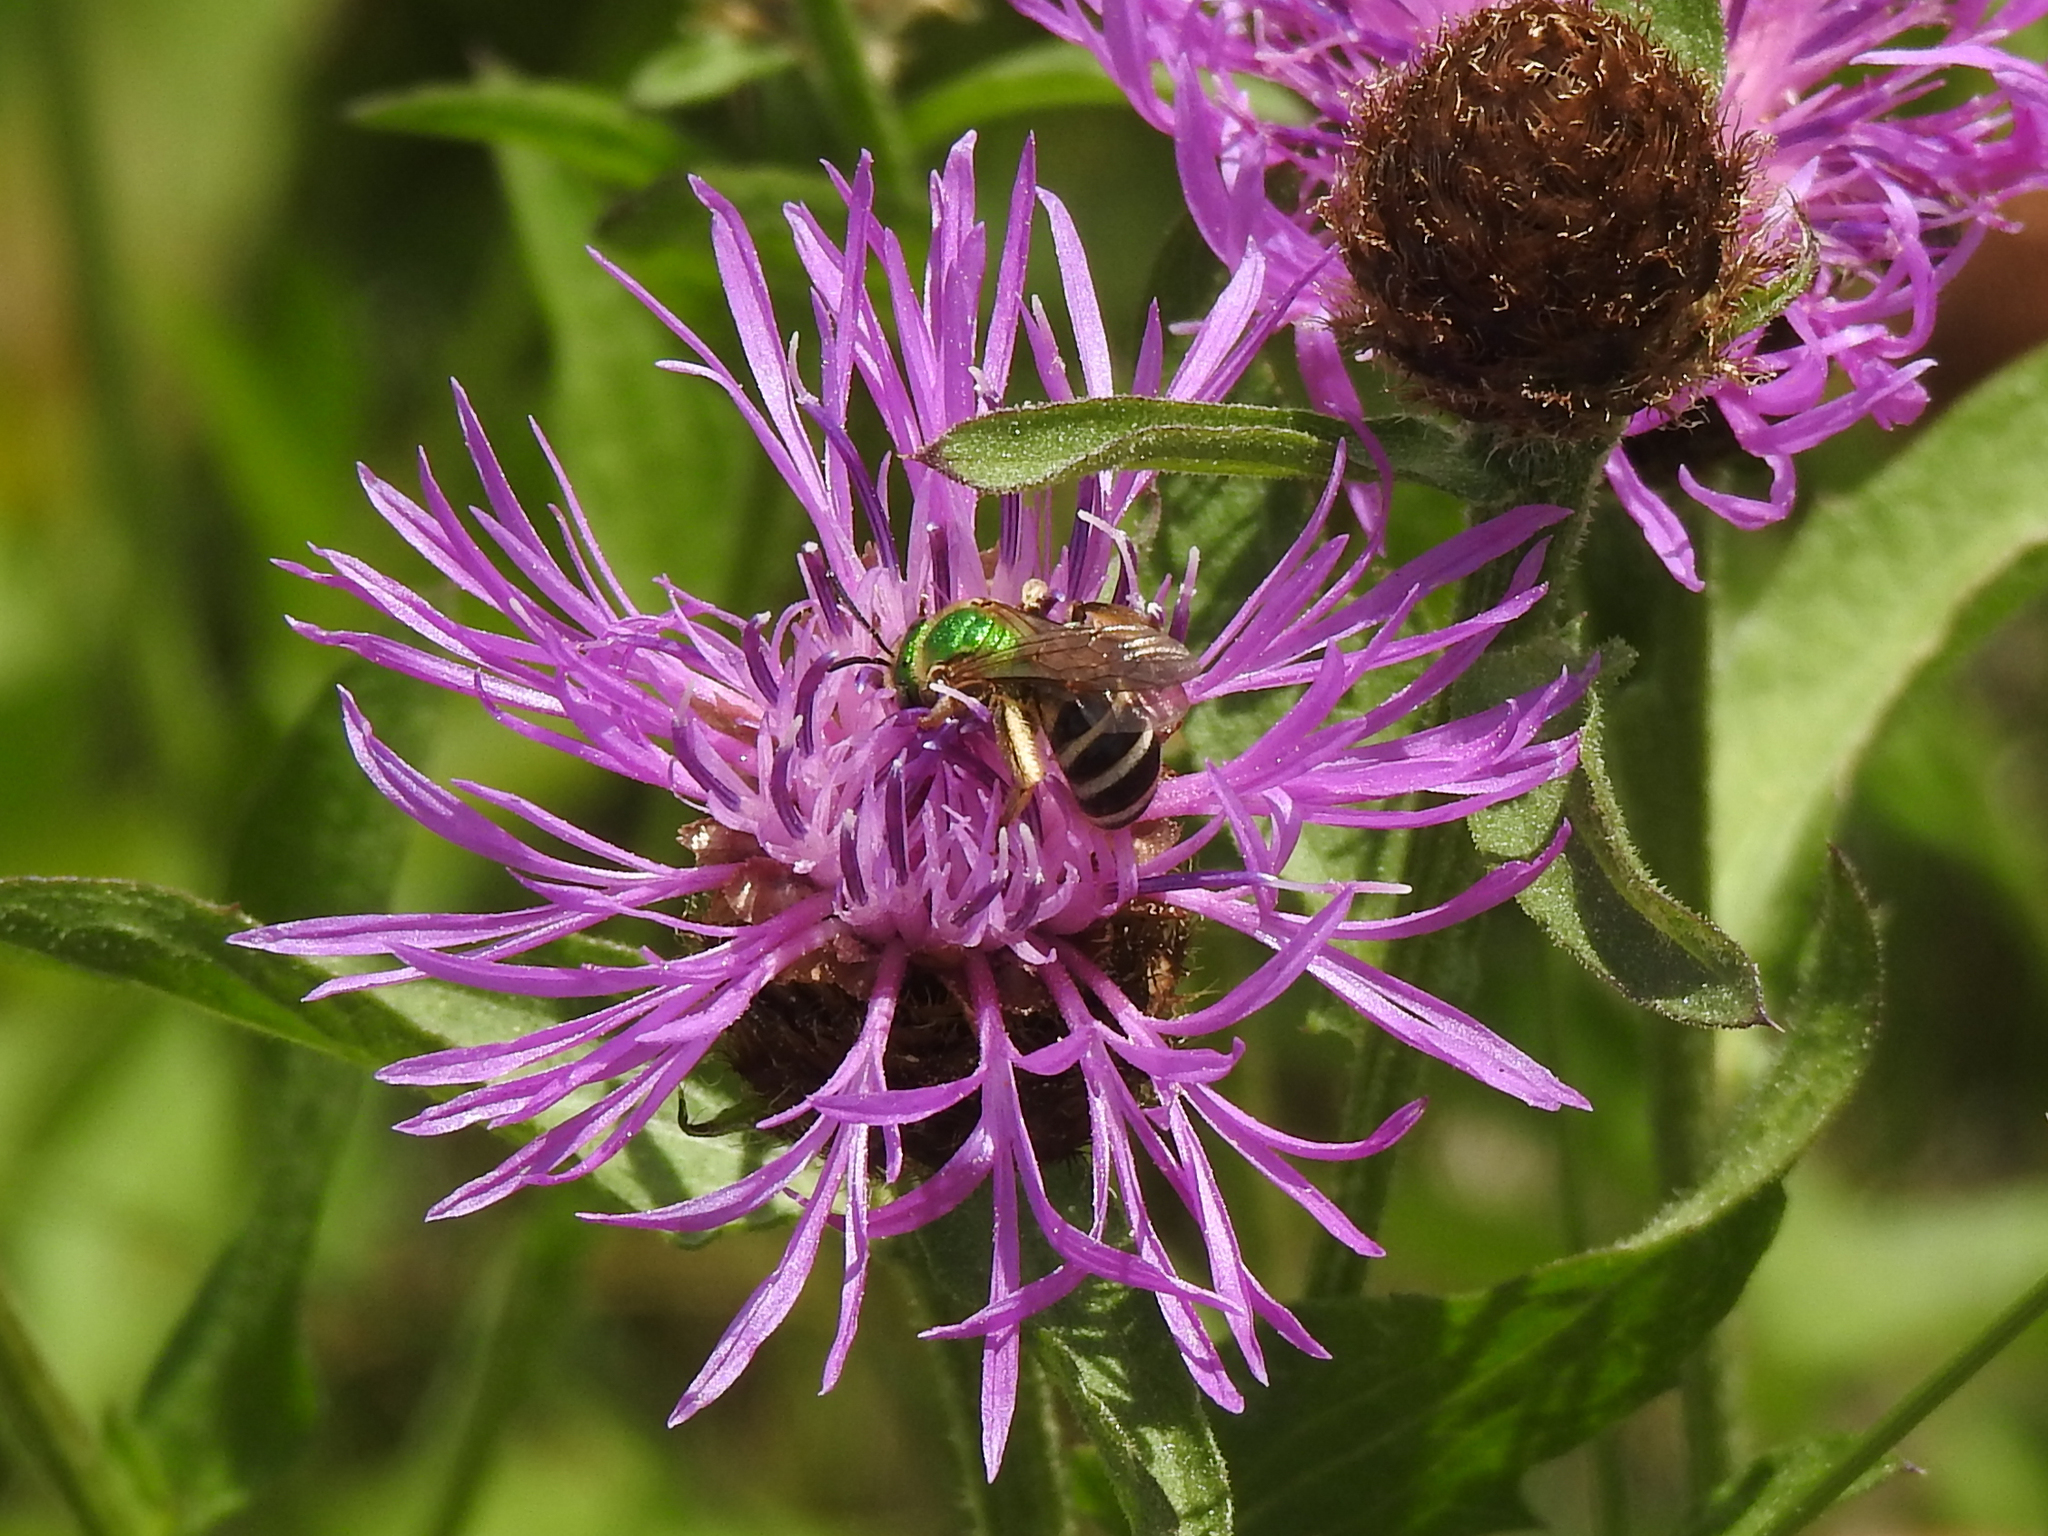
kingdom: Animalia
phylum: Arthropoda
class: Insecta
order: Hymenoptera
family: Halictidae
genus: Agapostemon
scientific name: Agapostemon virescens
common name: Bicolored striped sweat bee
